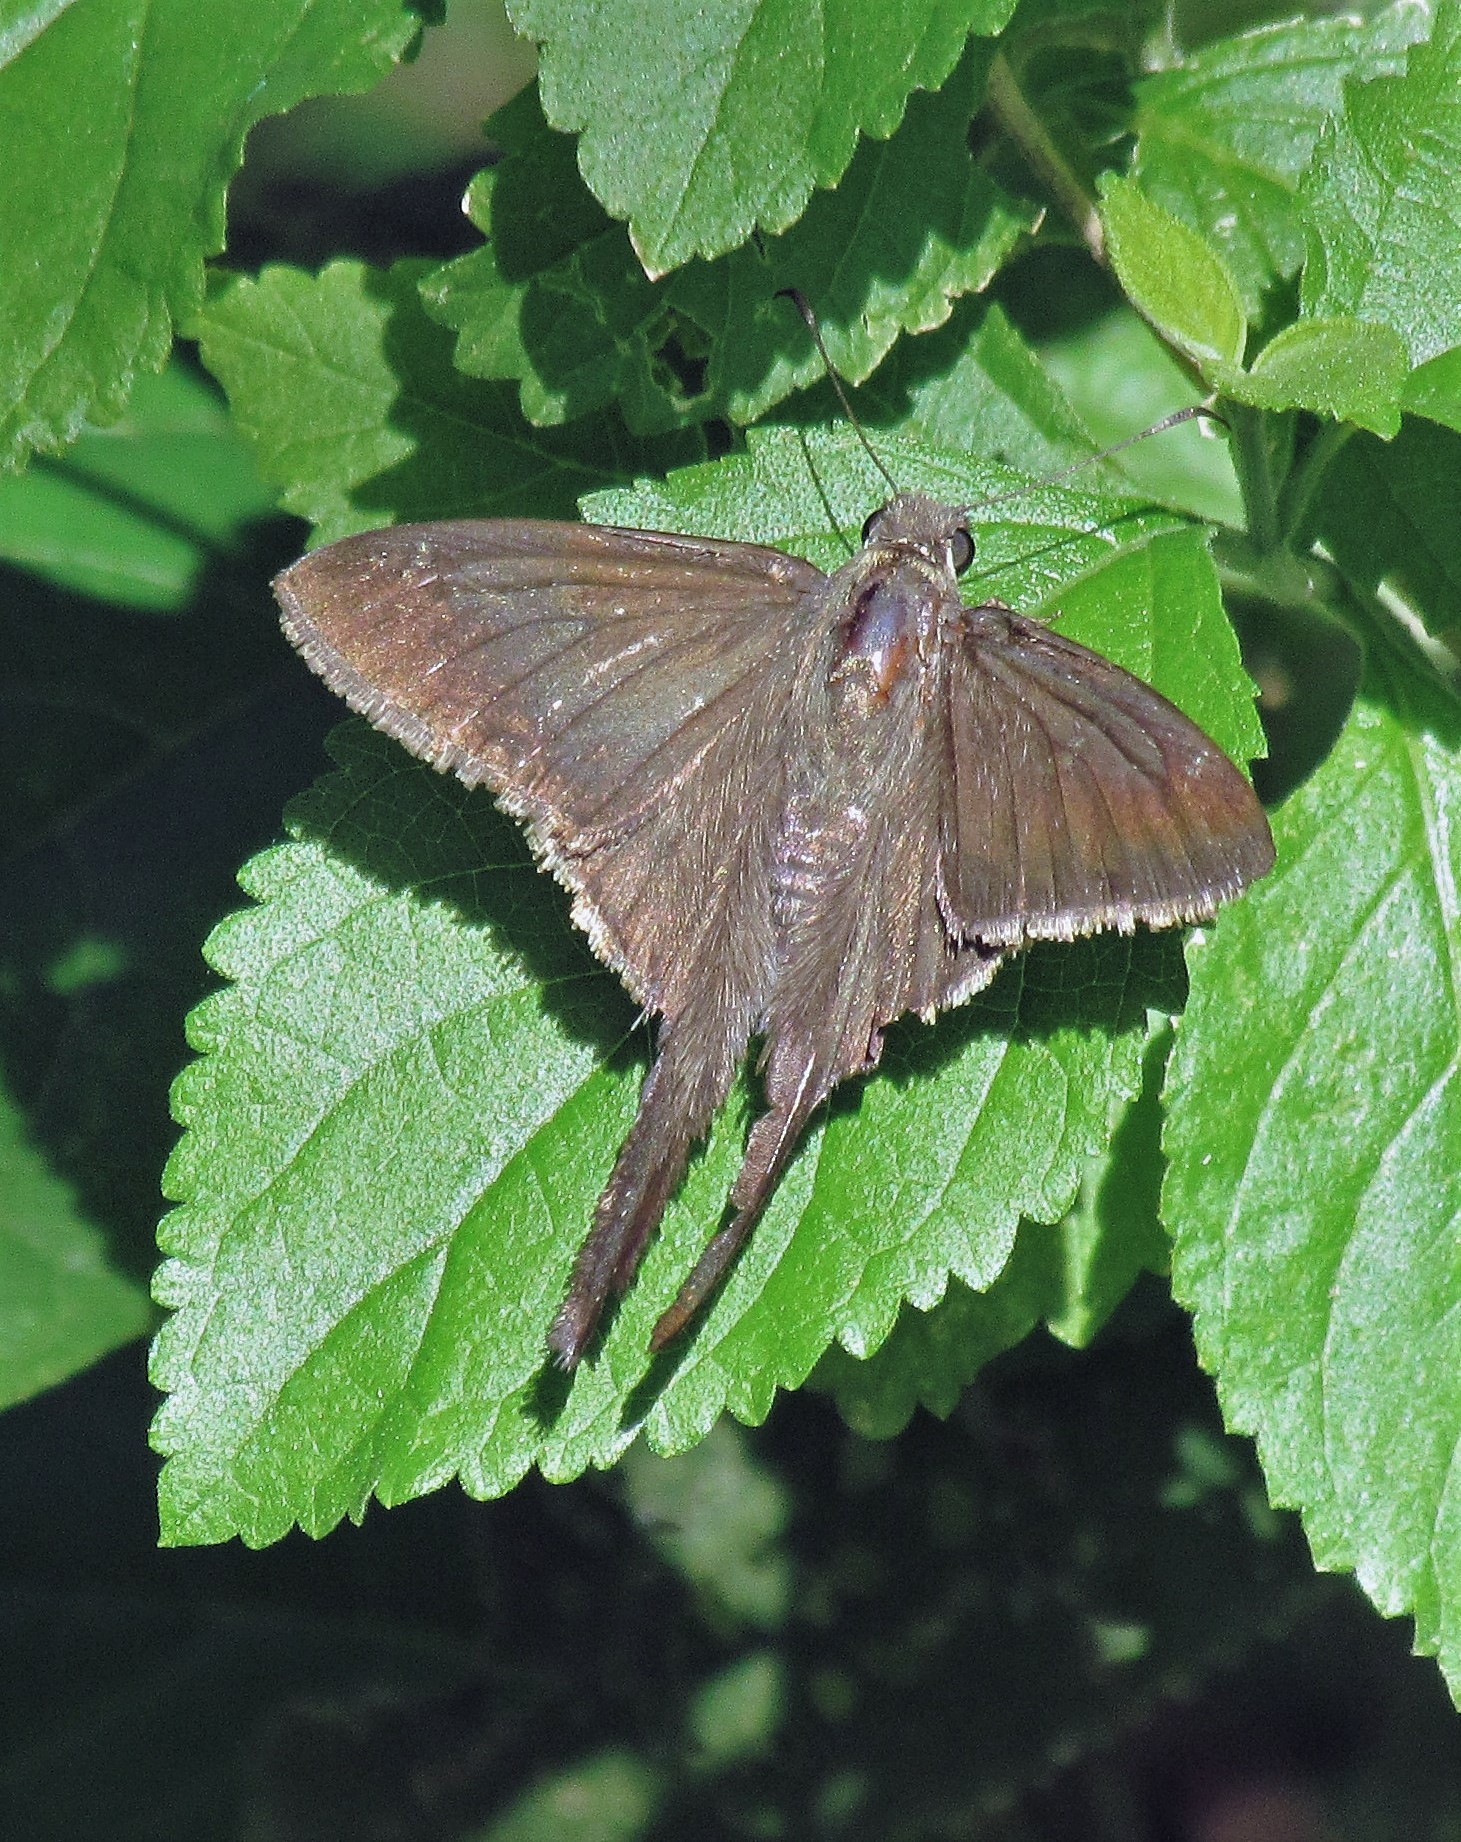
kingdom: Animalia
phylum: Arthropoda
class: Insecta
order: Lepidoptera
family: Hesperiidae
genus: Urbanus
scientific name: Urbanus simplicius
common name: Plain longtail
